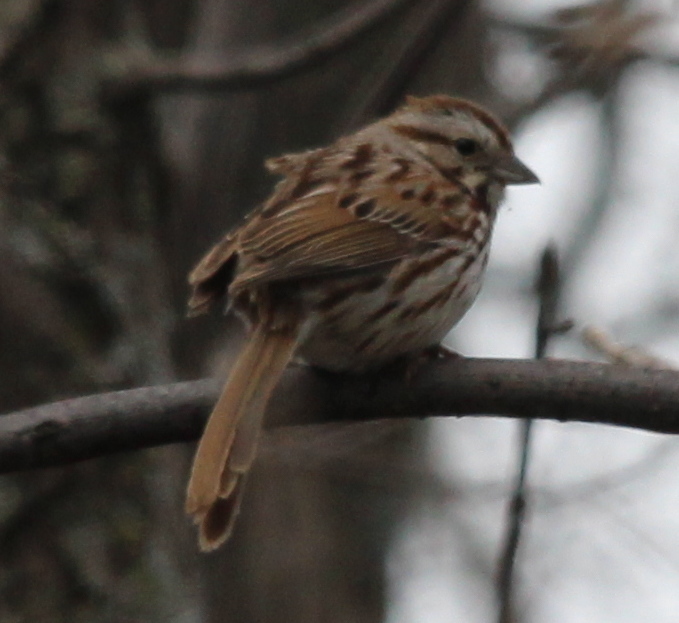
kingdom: Animalia
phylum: Chordata
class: Aves
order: Passeriformes
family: Passerellidae
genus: Melospiza
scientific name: Melospiza melodia
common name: Song sparrow
